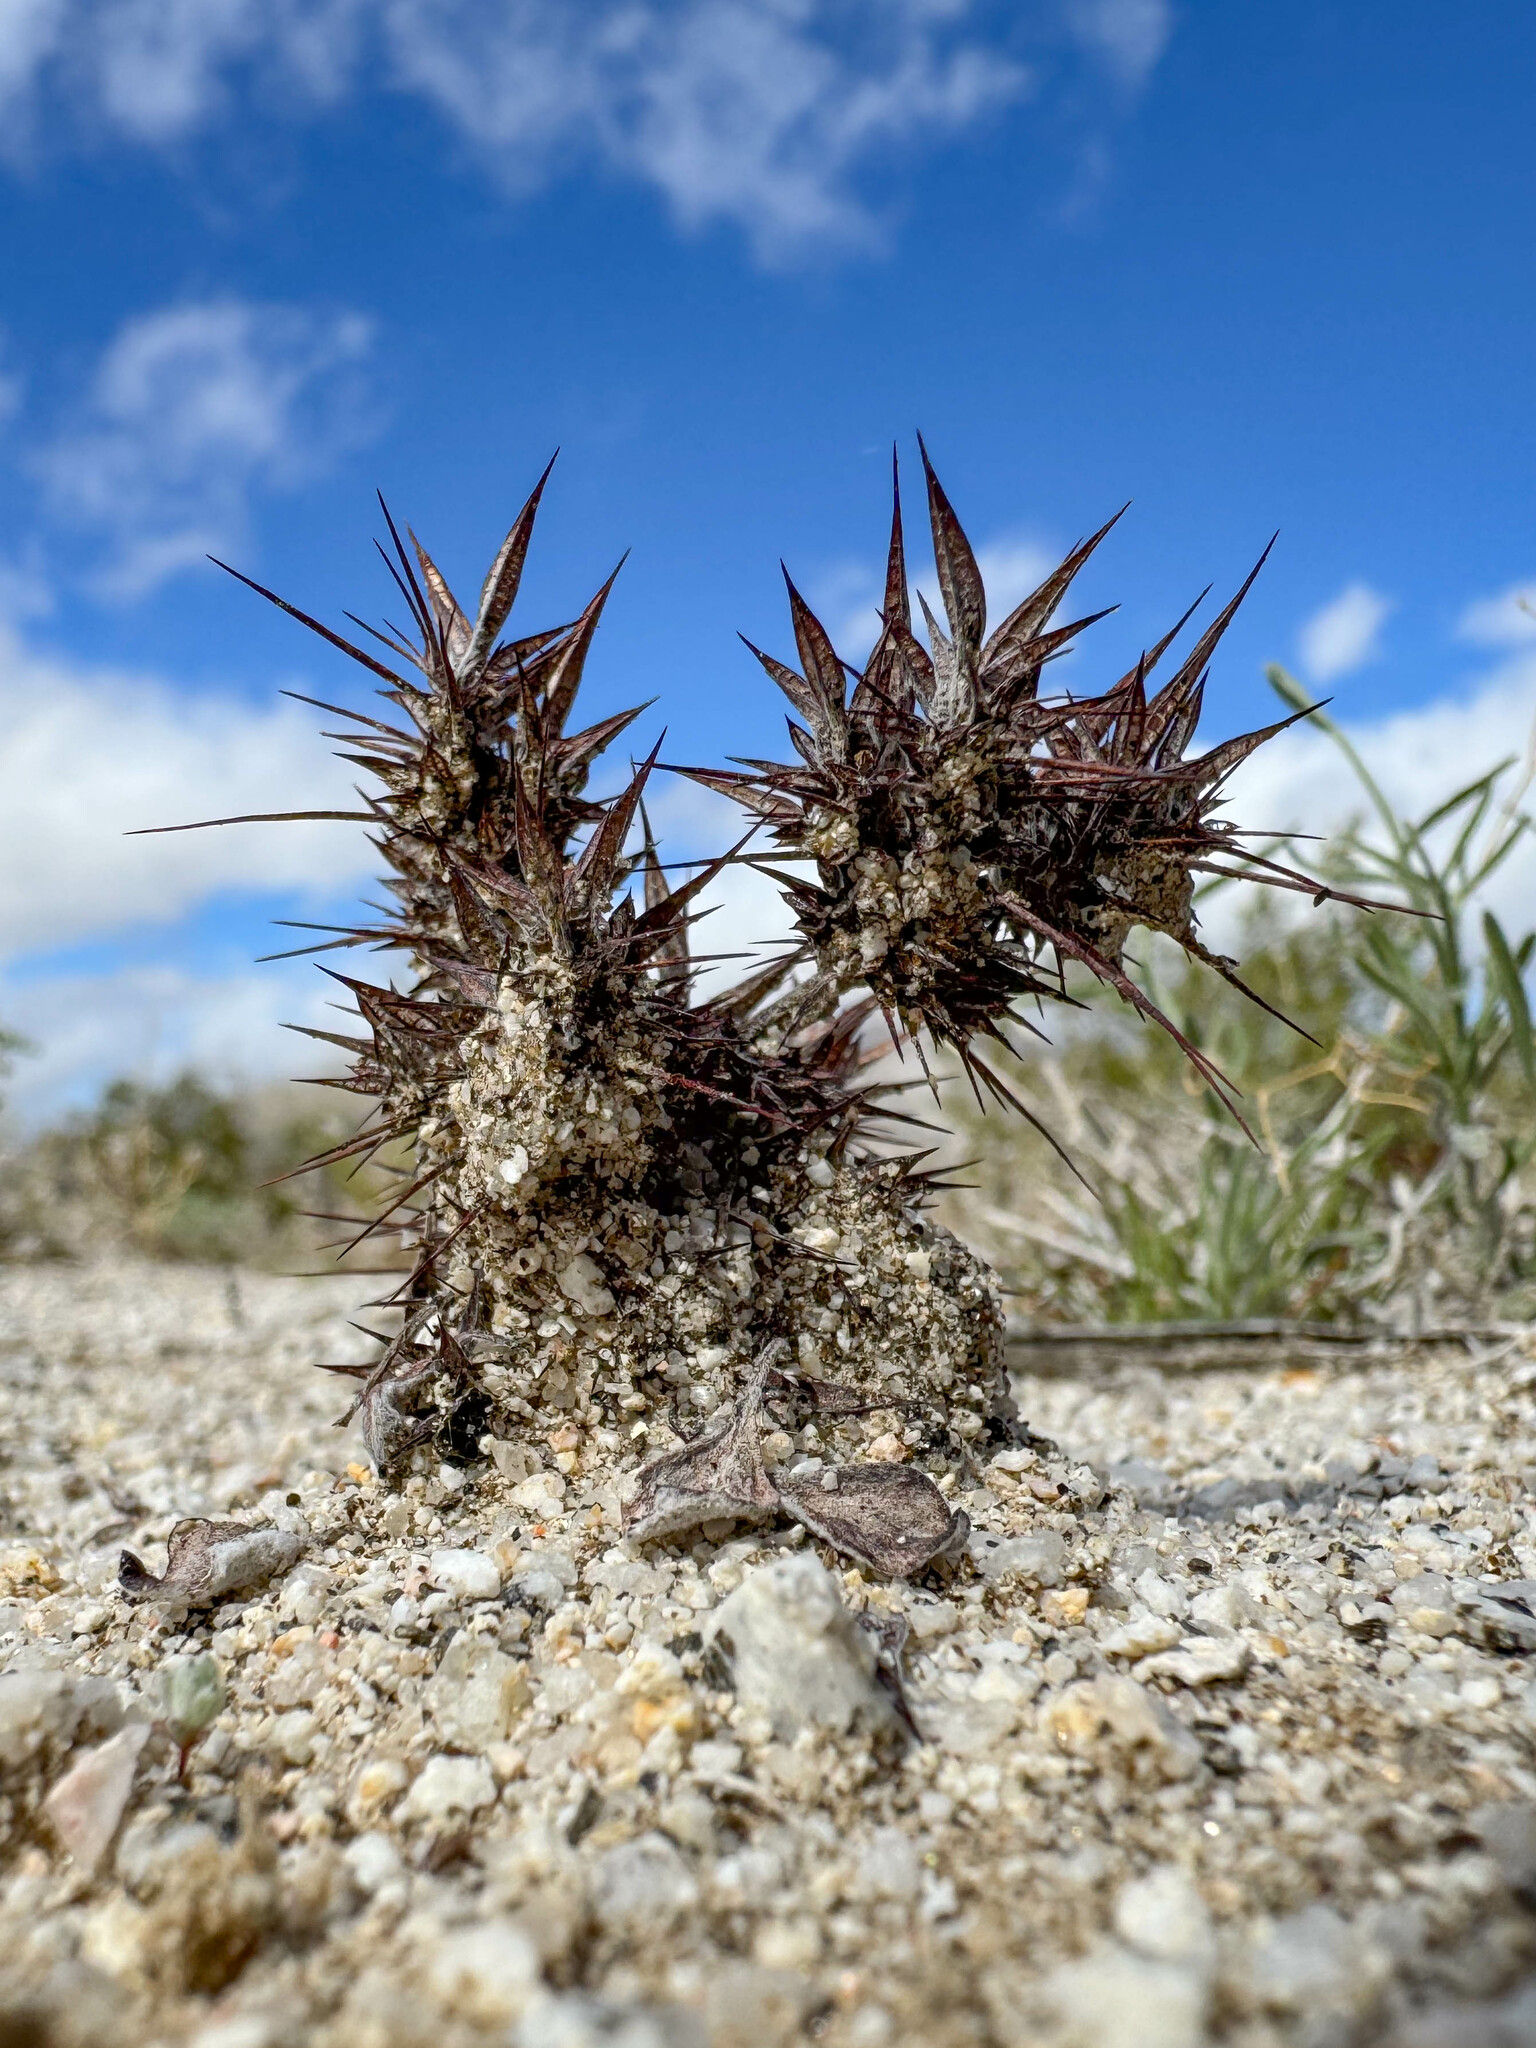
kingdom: Plantae
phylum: Tracheophyta
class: Magnoliopsida
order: Caryophyllales
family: Polygonaceae
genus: Chorizanthe
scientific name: Chorizanthe rigida
